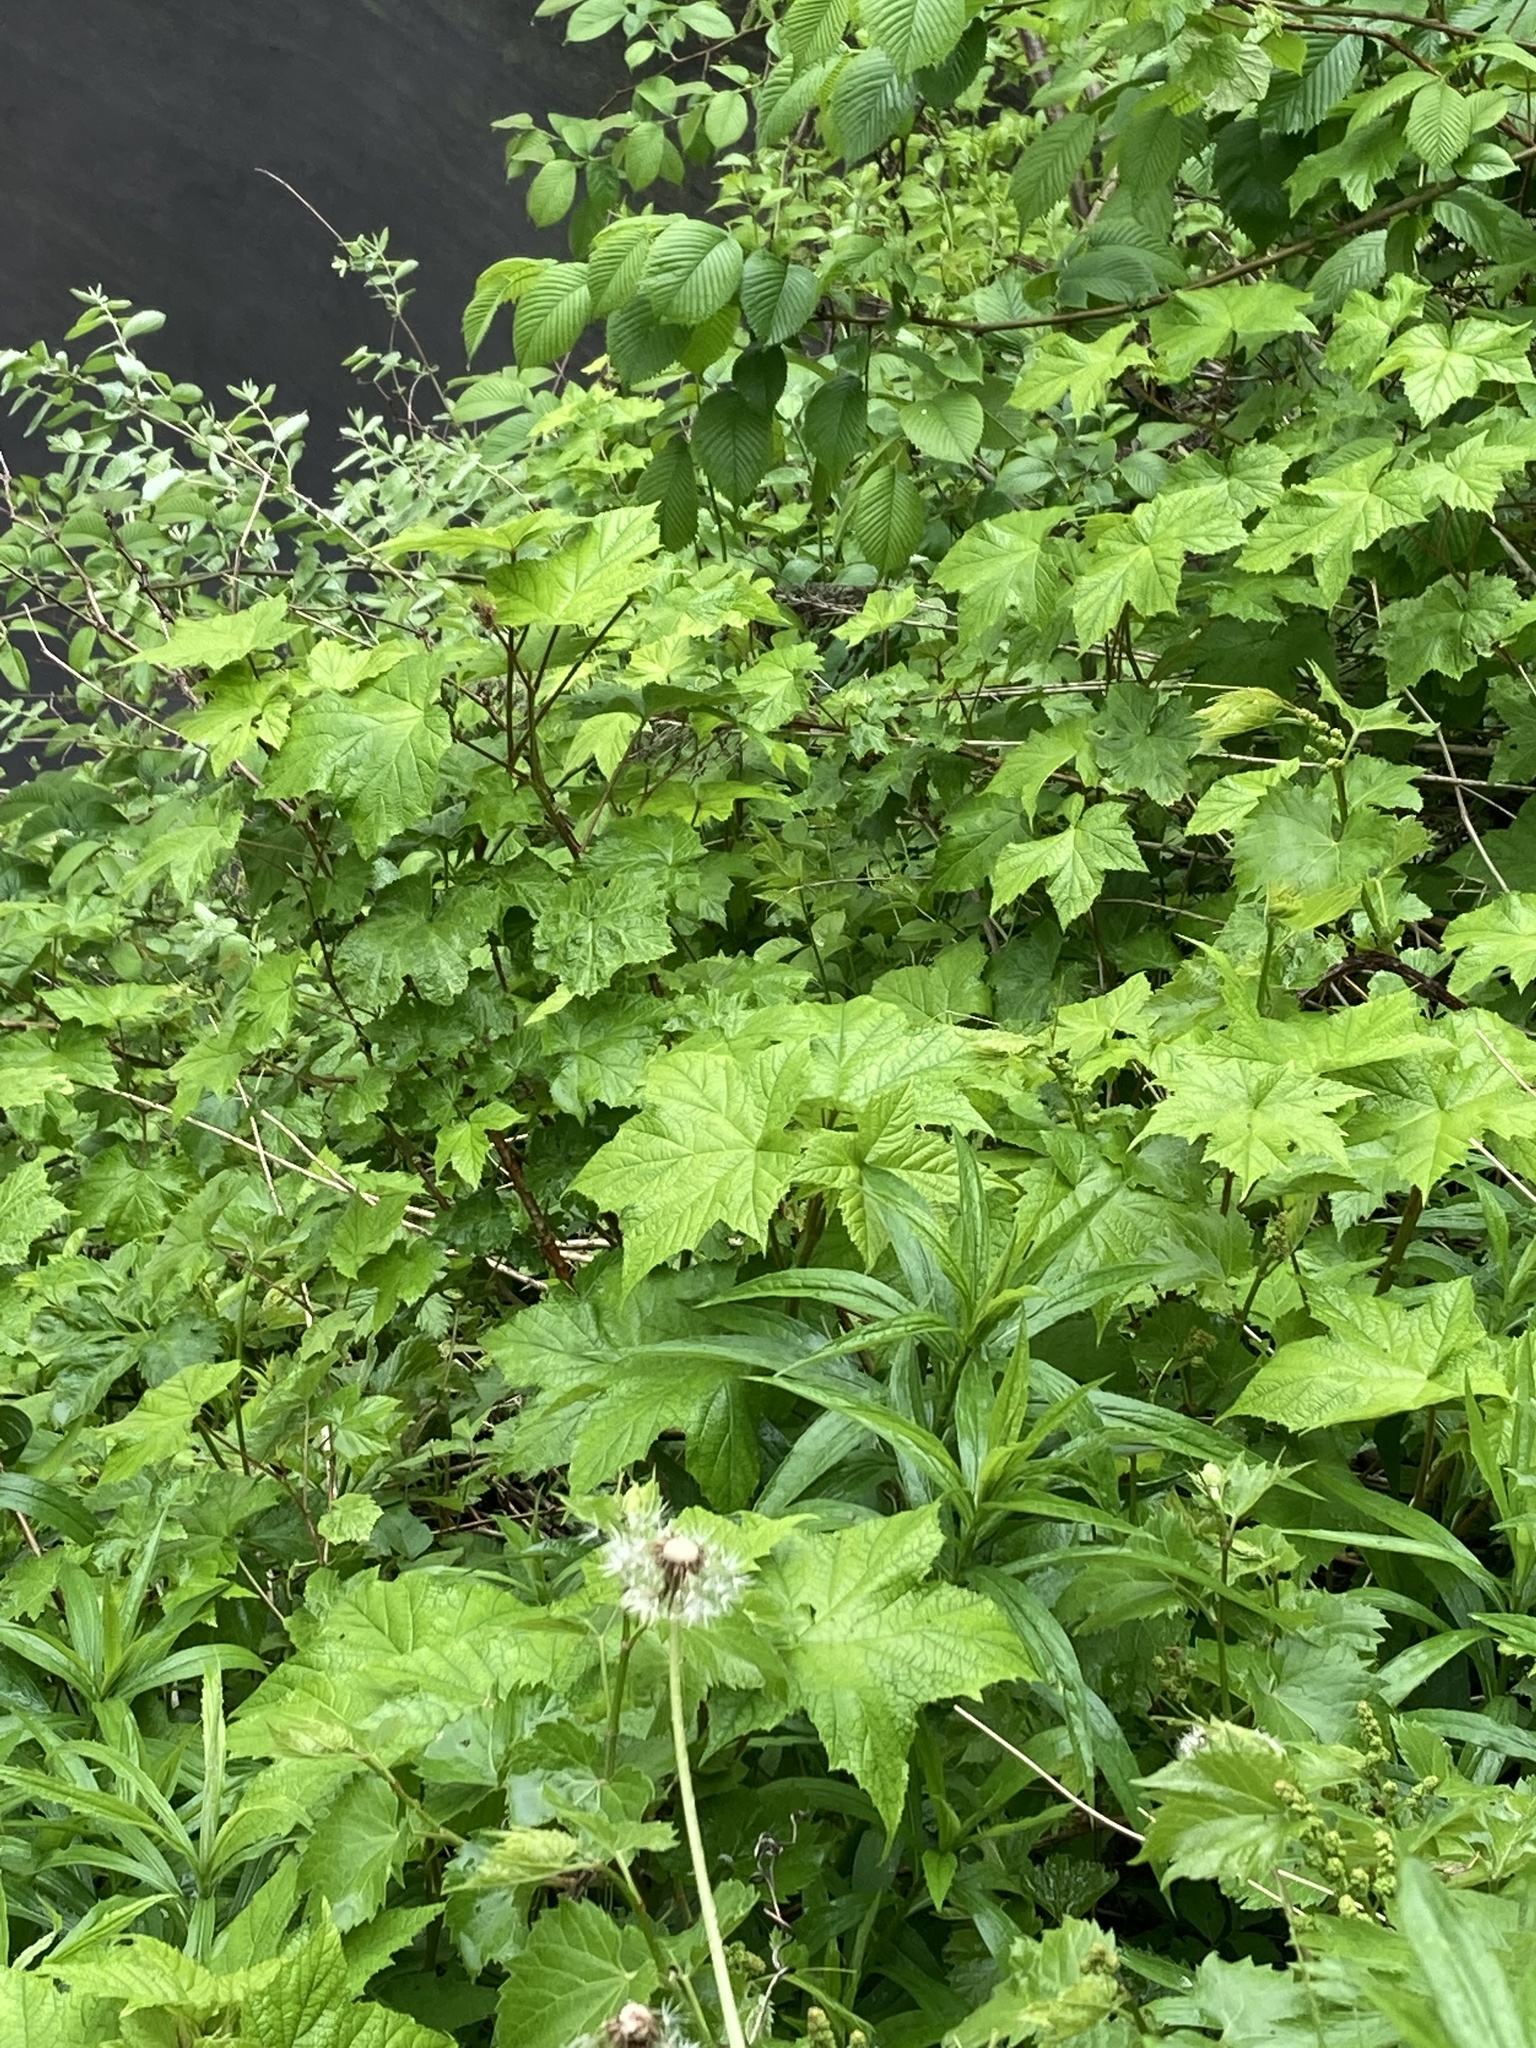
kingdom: Plantae
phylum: Tracheophyta
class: Magnoliopsida
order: Rosales
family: Rosaceae
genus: Rubus
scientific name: Rubus odoratus
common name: Purple-flowered raspberry
